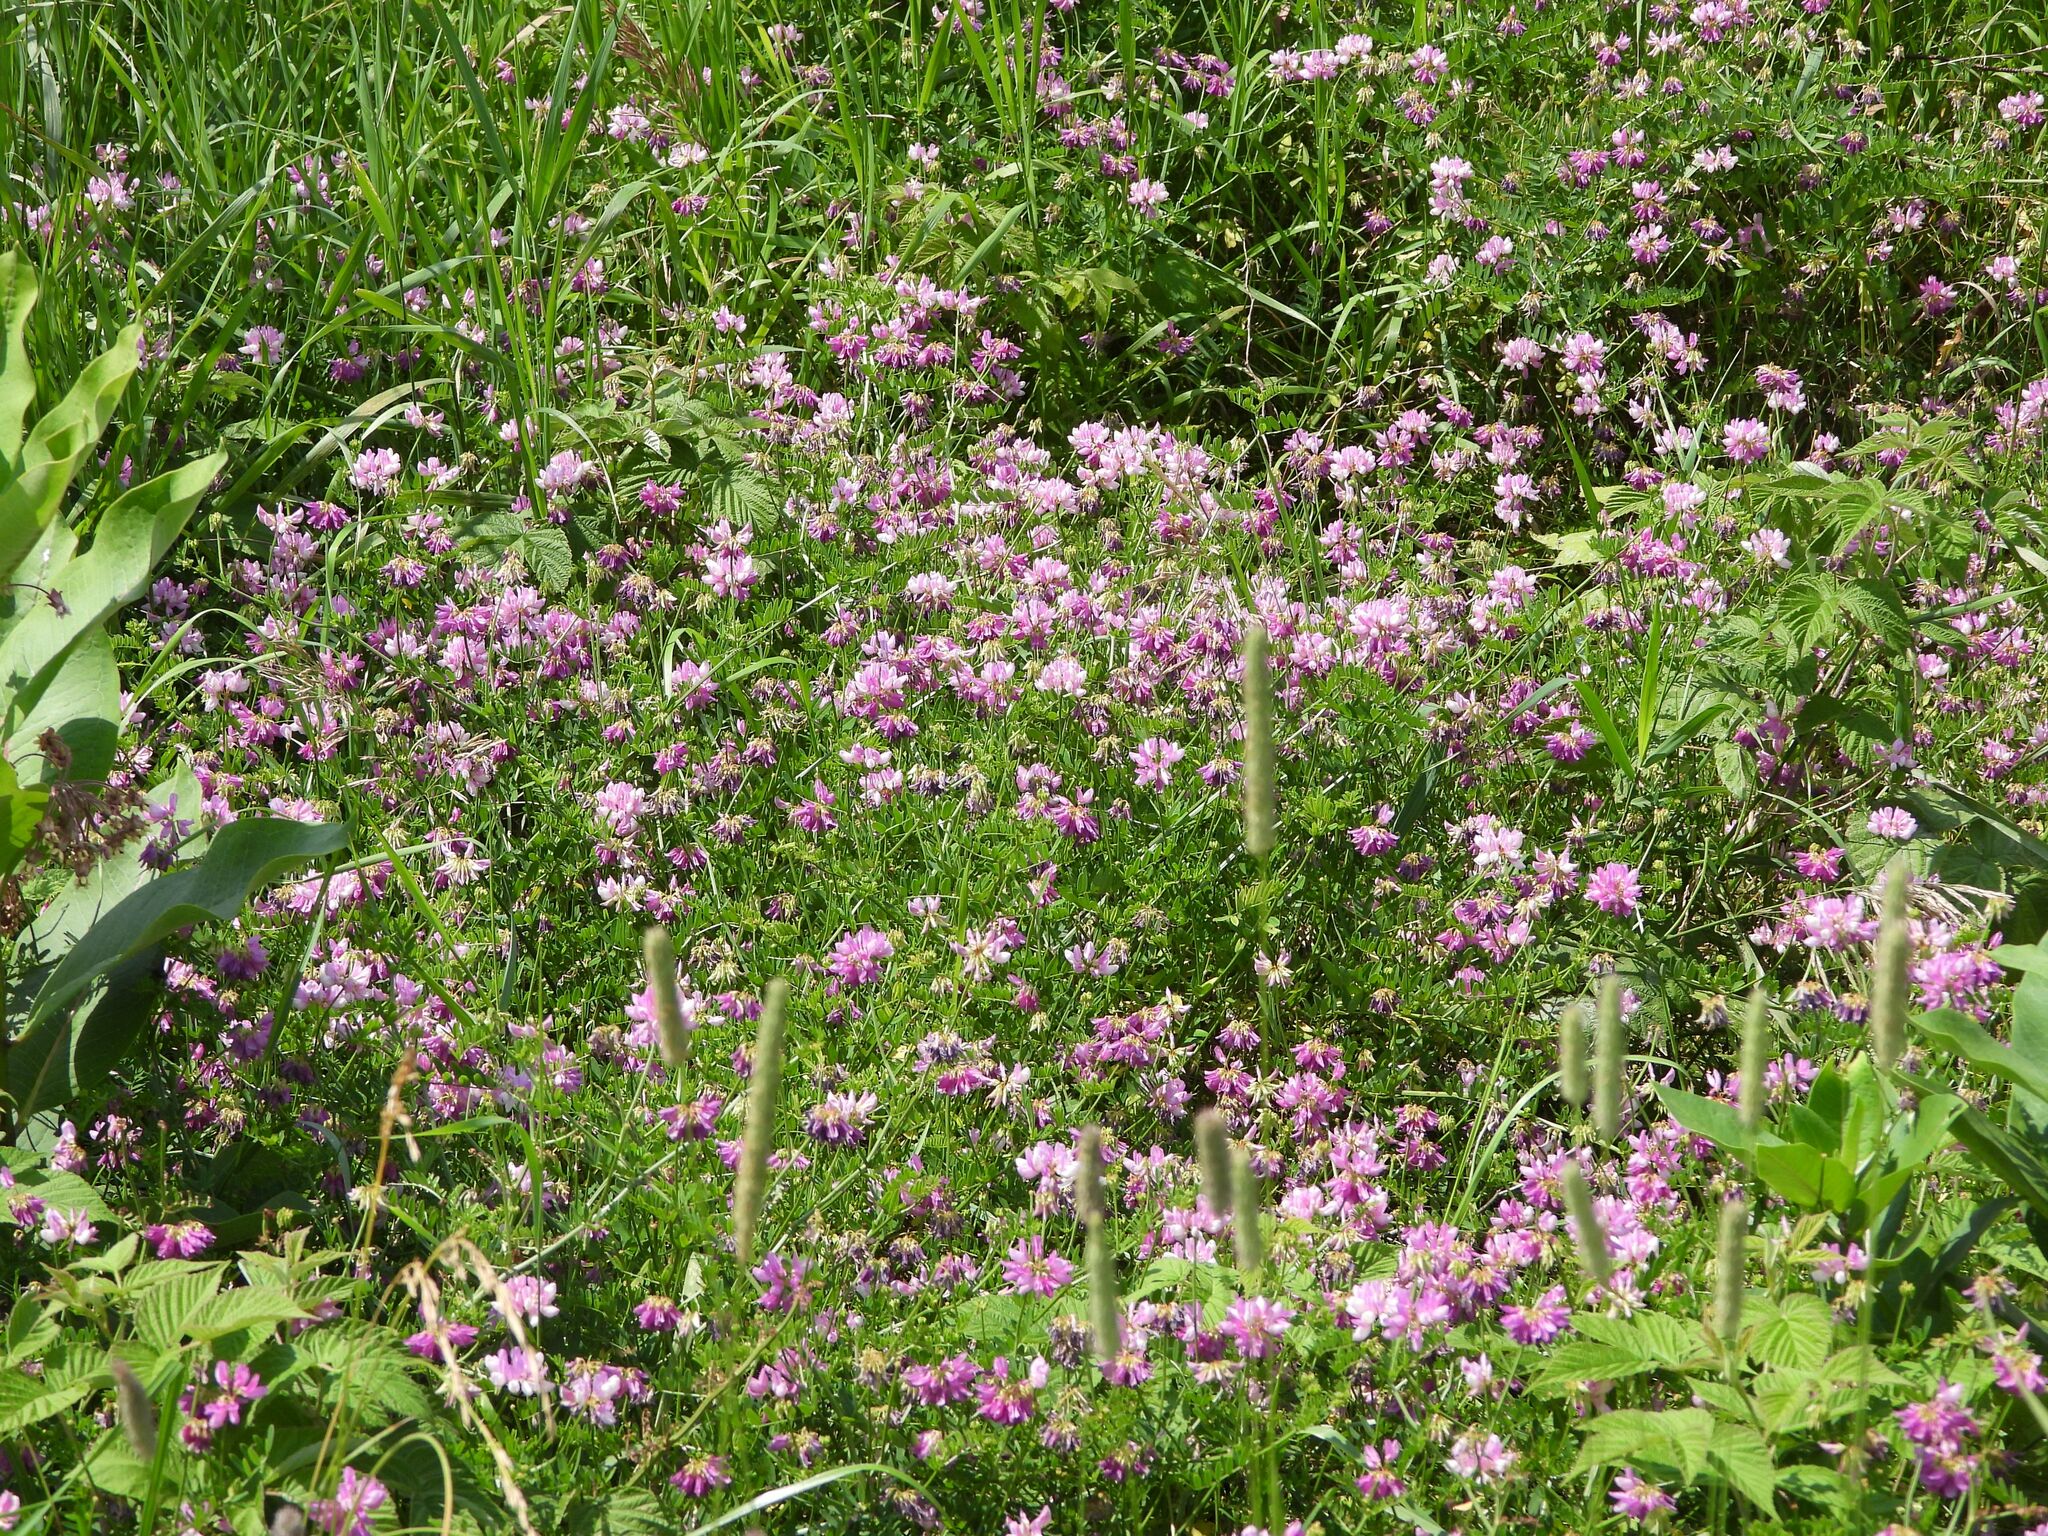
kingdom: Animalia
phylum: Arthropoda
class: Insecta
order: Lepidoptera
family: Hesperiidae
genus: Erynnis
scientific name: Erynnis baptisiae
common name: Wild indigo duskywing
